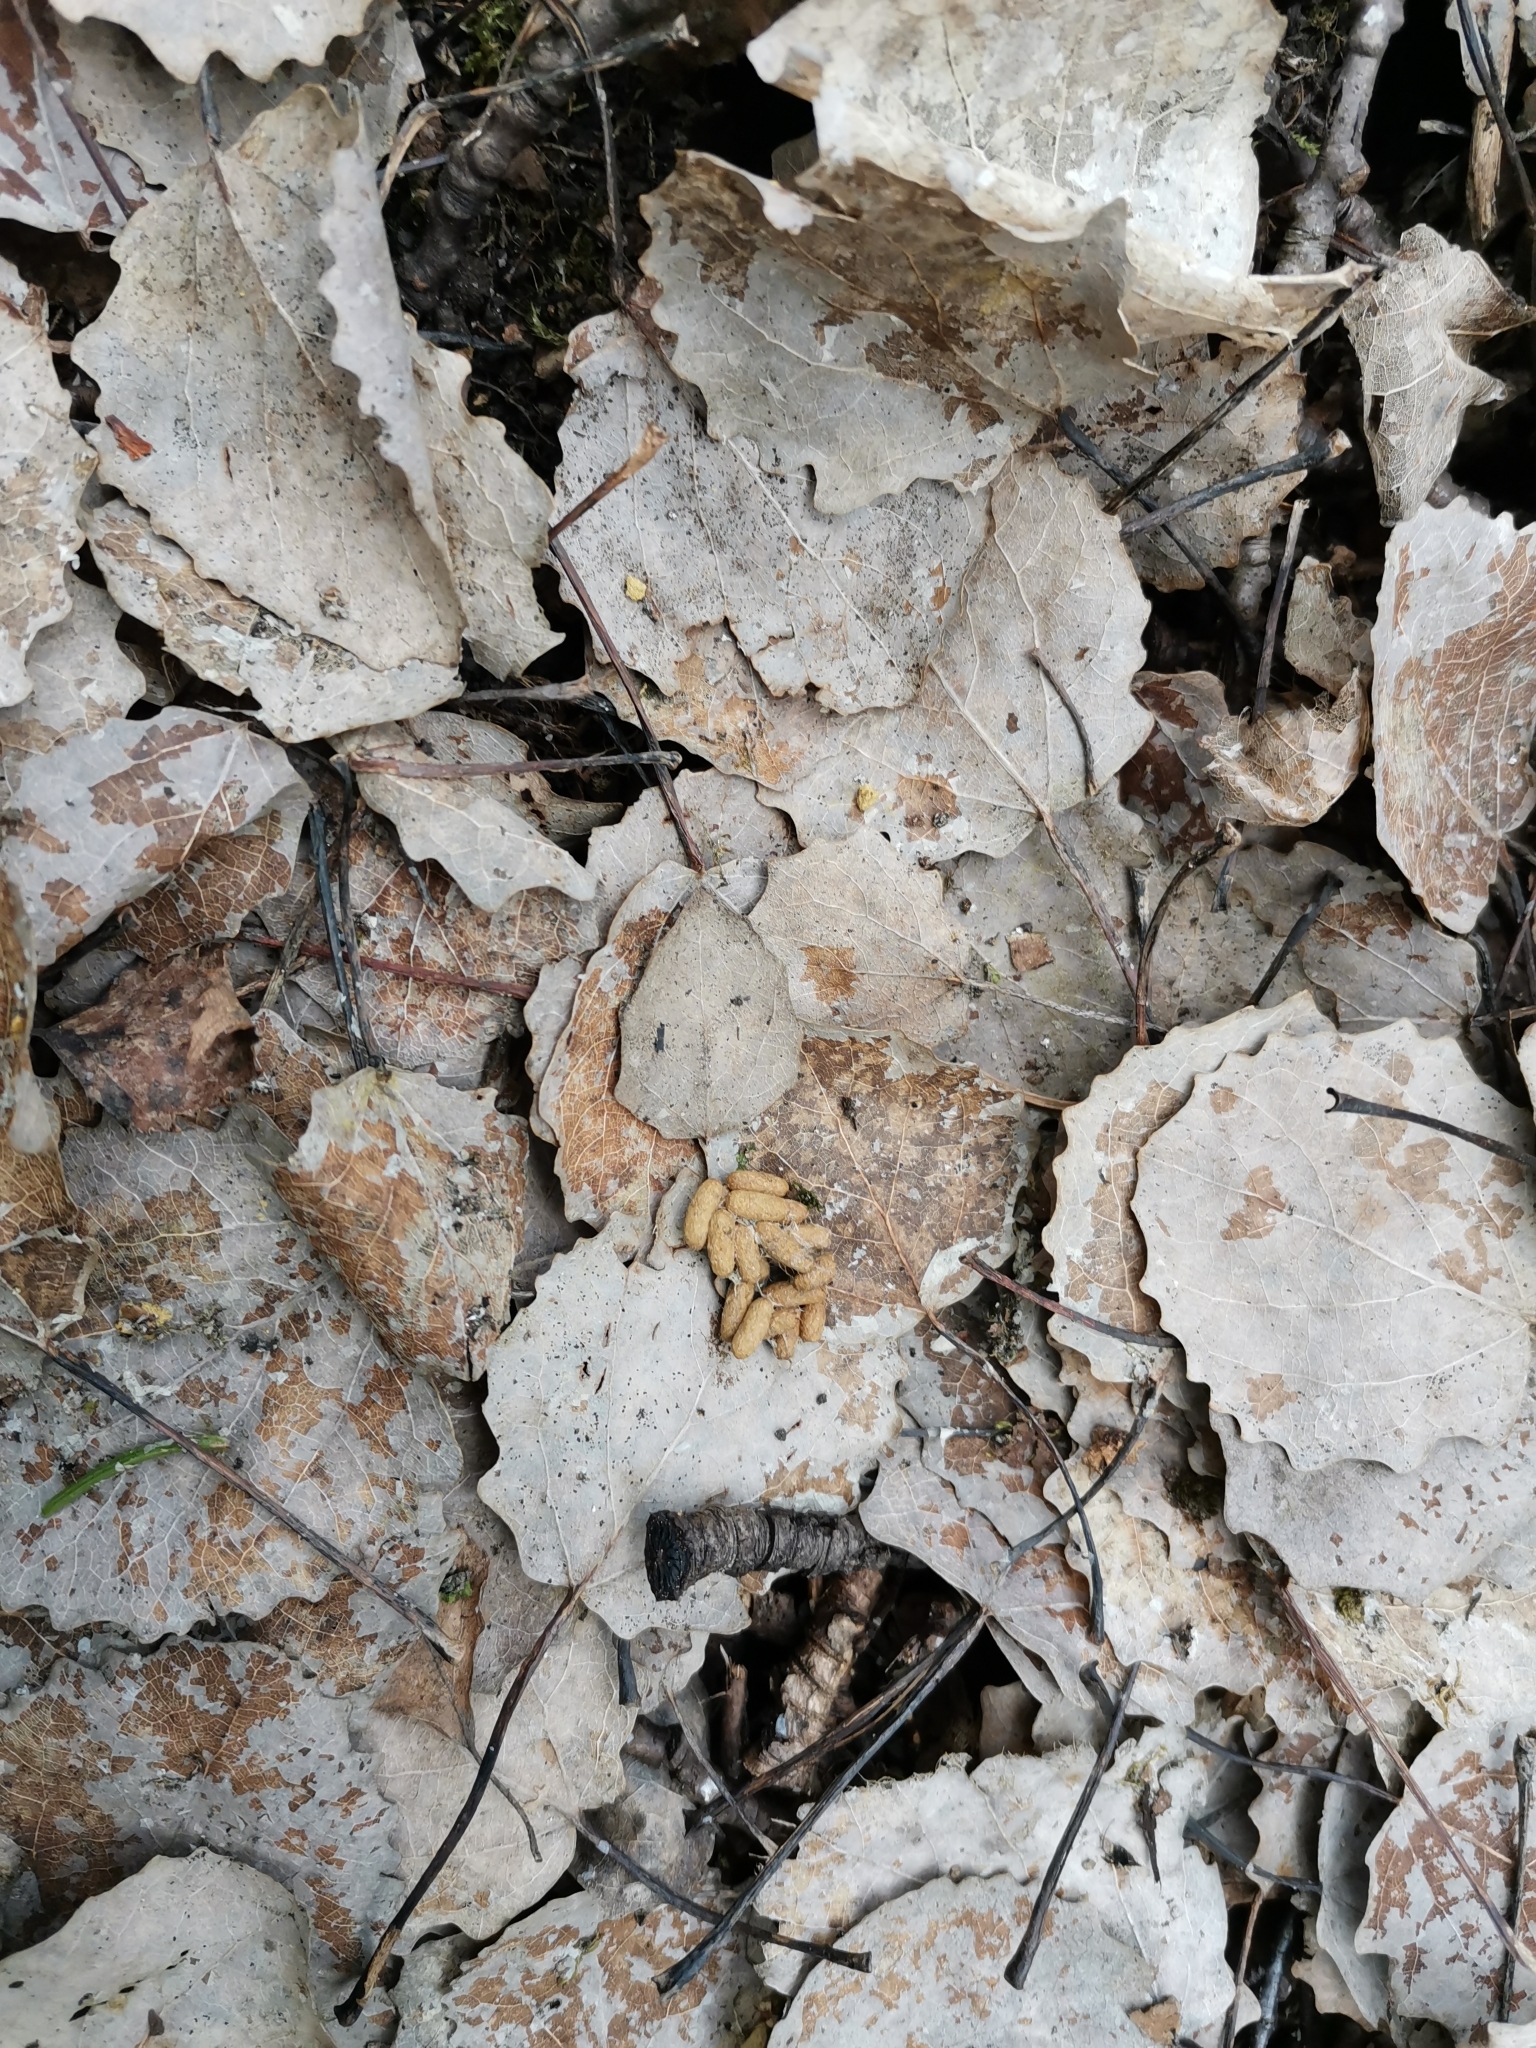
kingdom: Animalia
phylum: Chordata
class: Mammalia
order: Rodentia
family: Sciuridae
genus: Pteromys
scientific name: Pteromys volans
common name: Siberian flying squirrel
